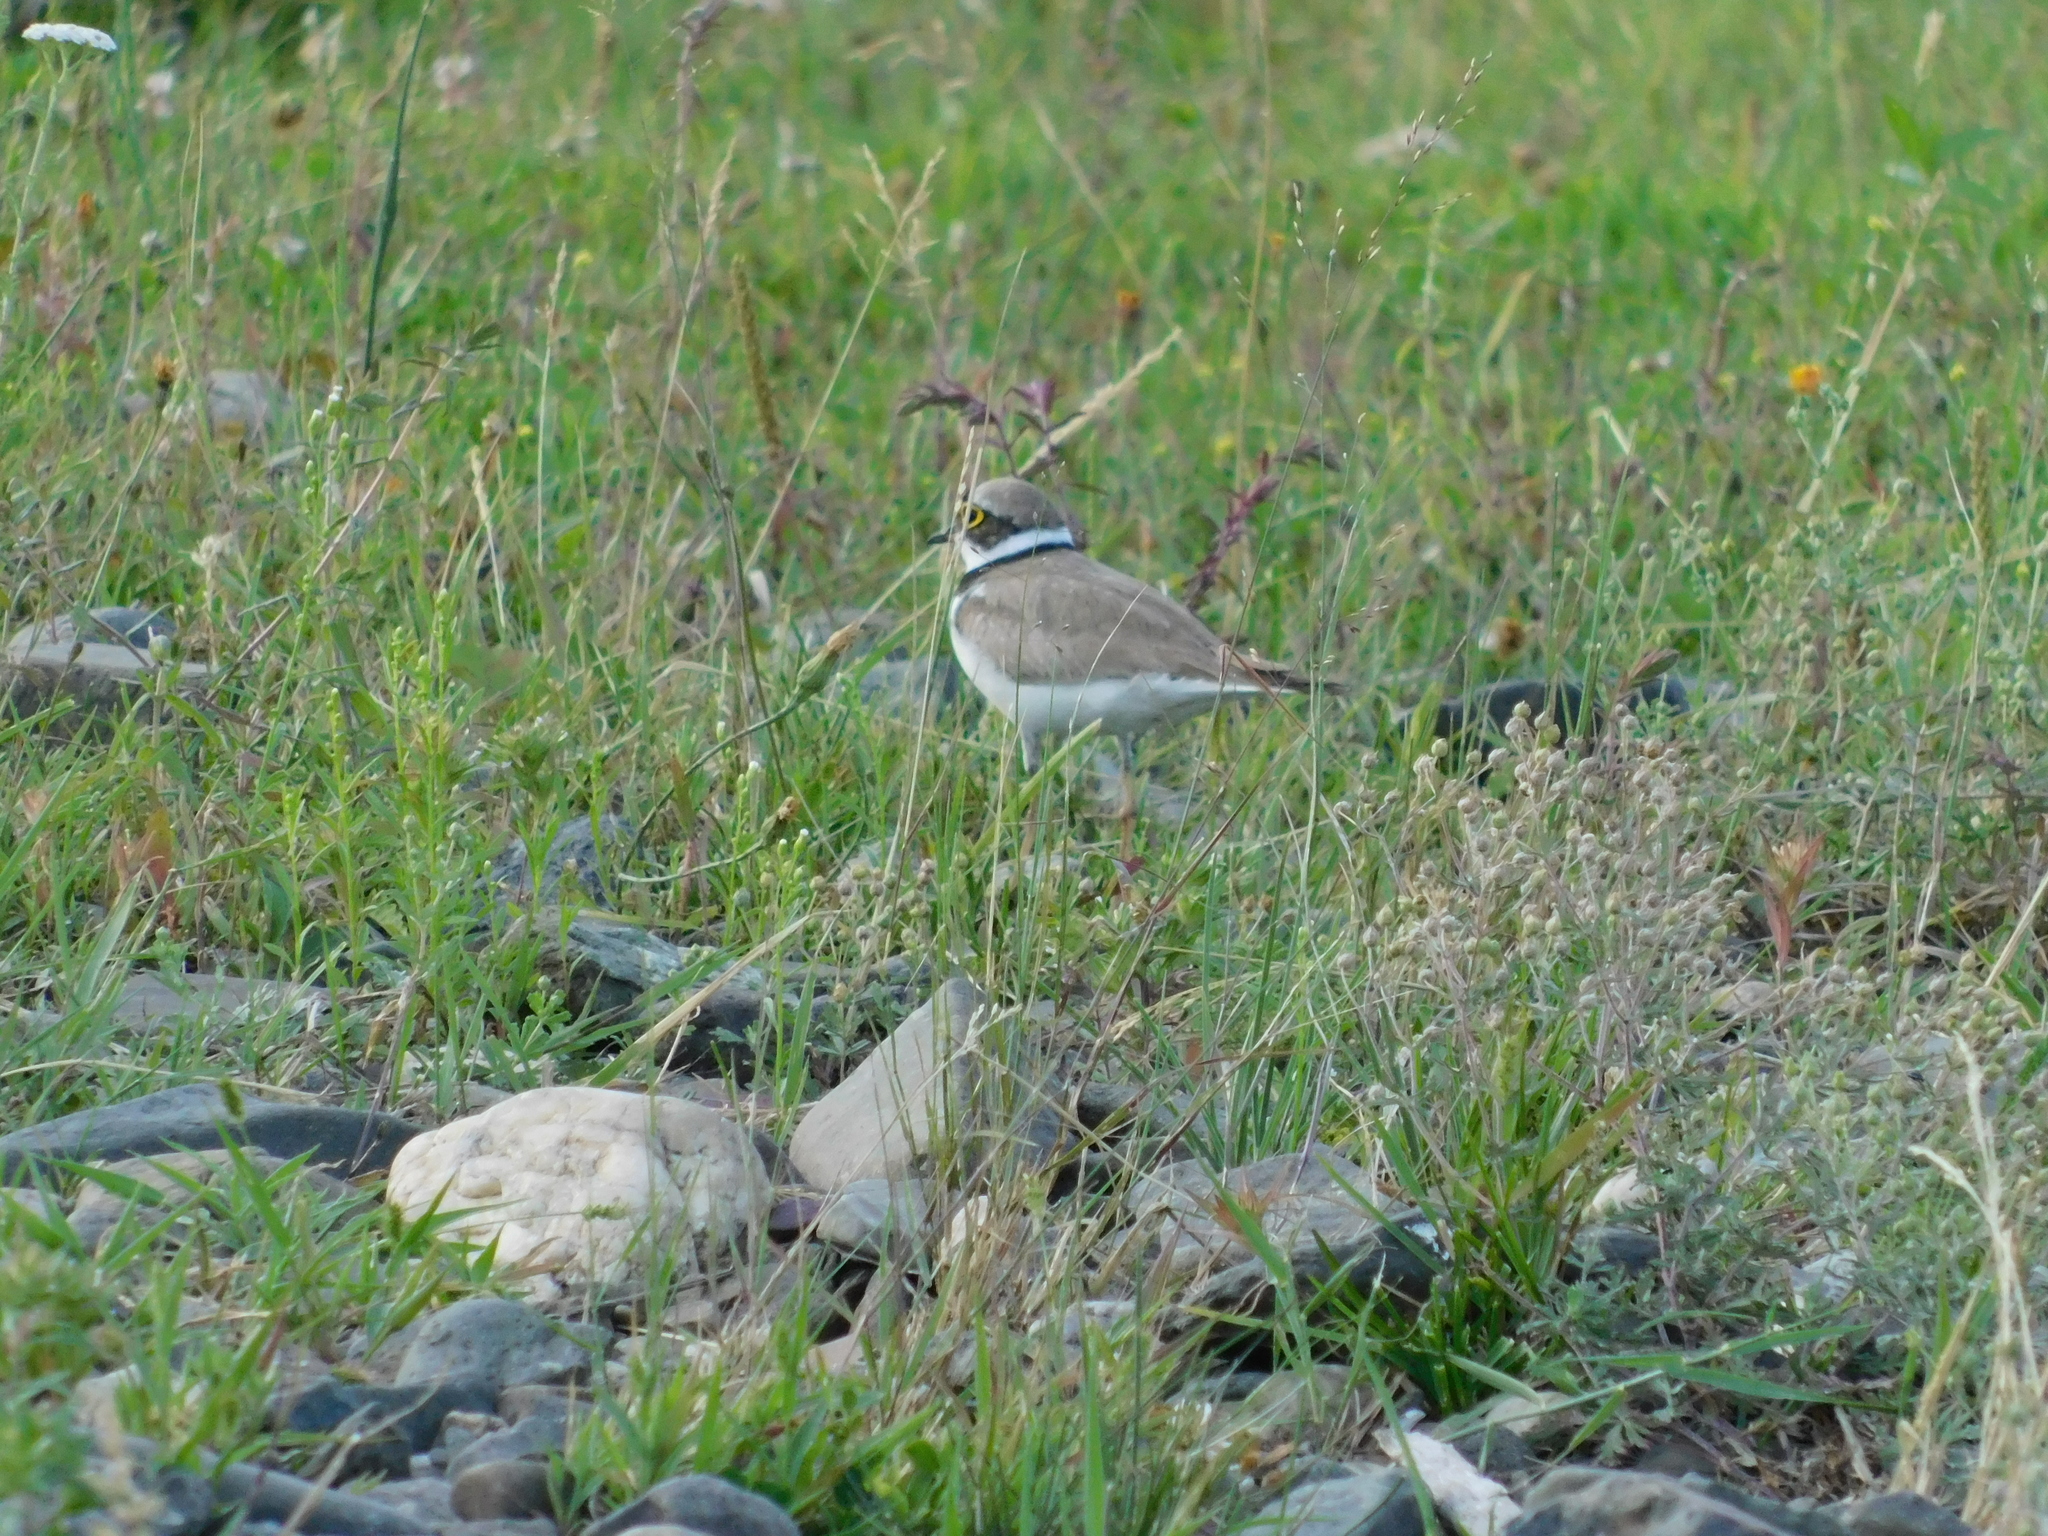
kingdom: Animalia
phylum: Chordata
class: Aves
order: Charadriiformes
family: Charadriidae
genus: Charadrius
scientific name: Charadrius dubius
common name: Little ringed plover
